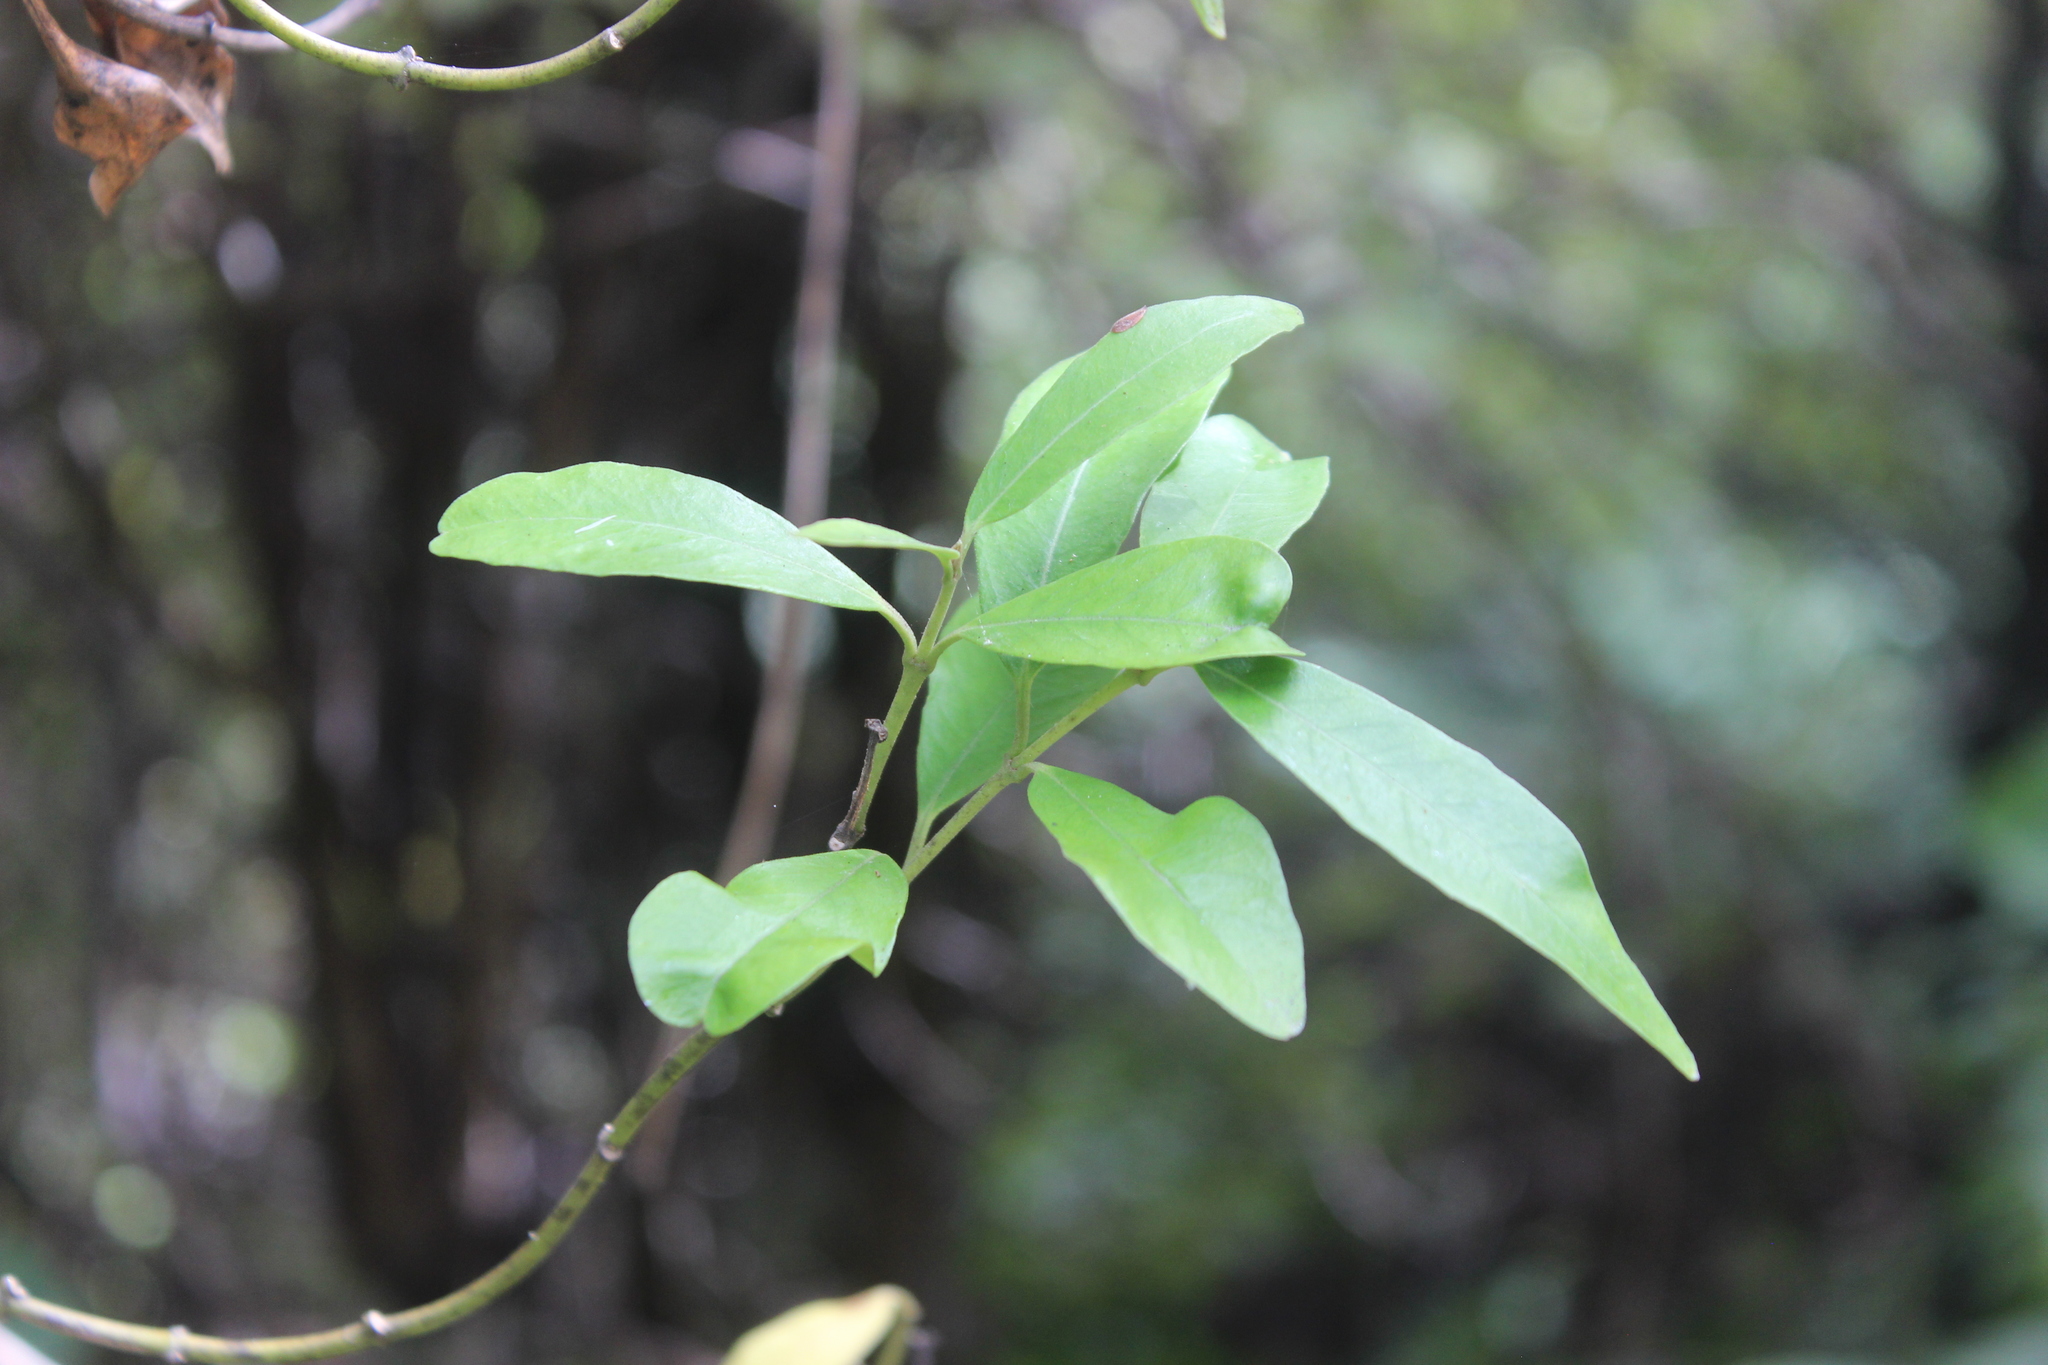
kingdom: Plantae
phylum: Tracheophyta
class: Magnoliopsida
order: Gentianales
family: Apocynaceae
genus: Parsonsia
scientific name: Parsonsia heterophylla
